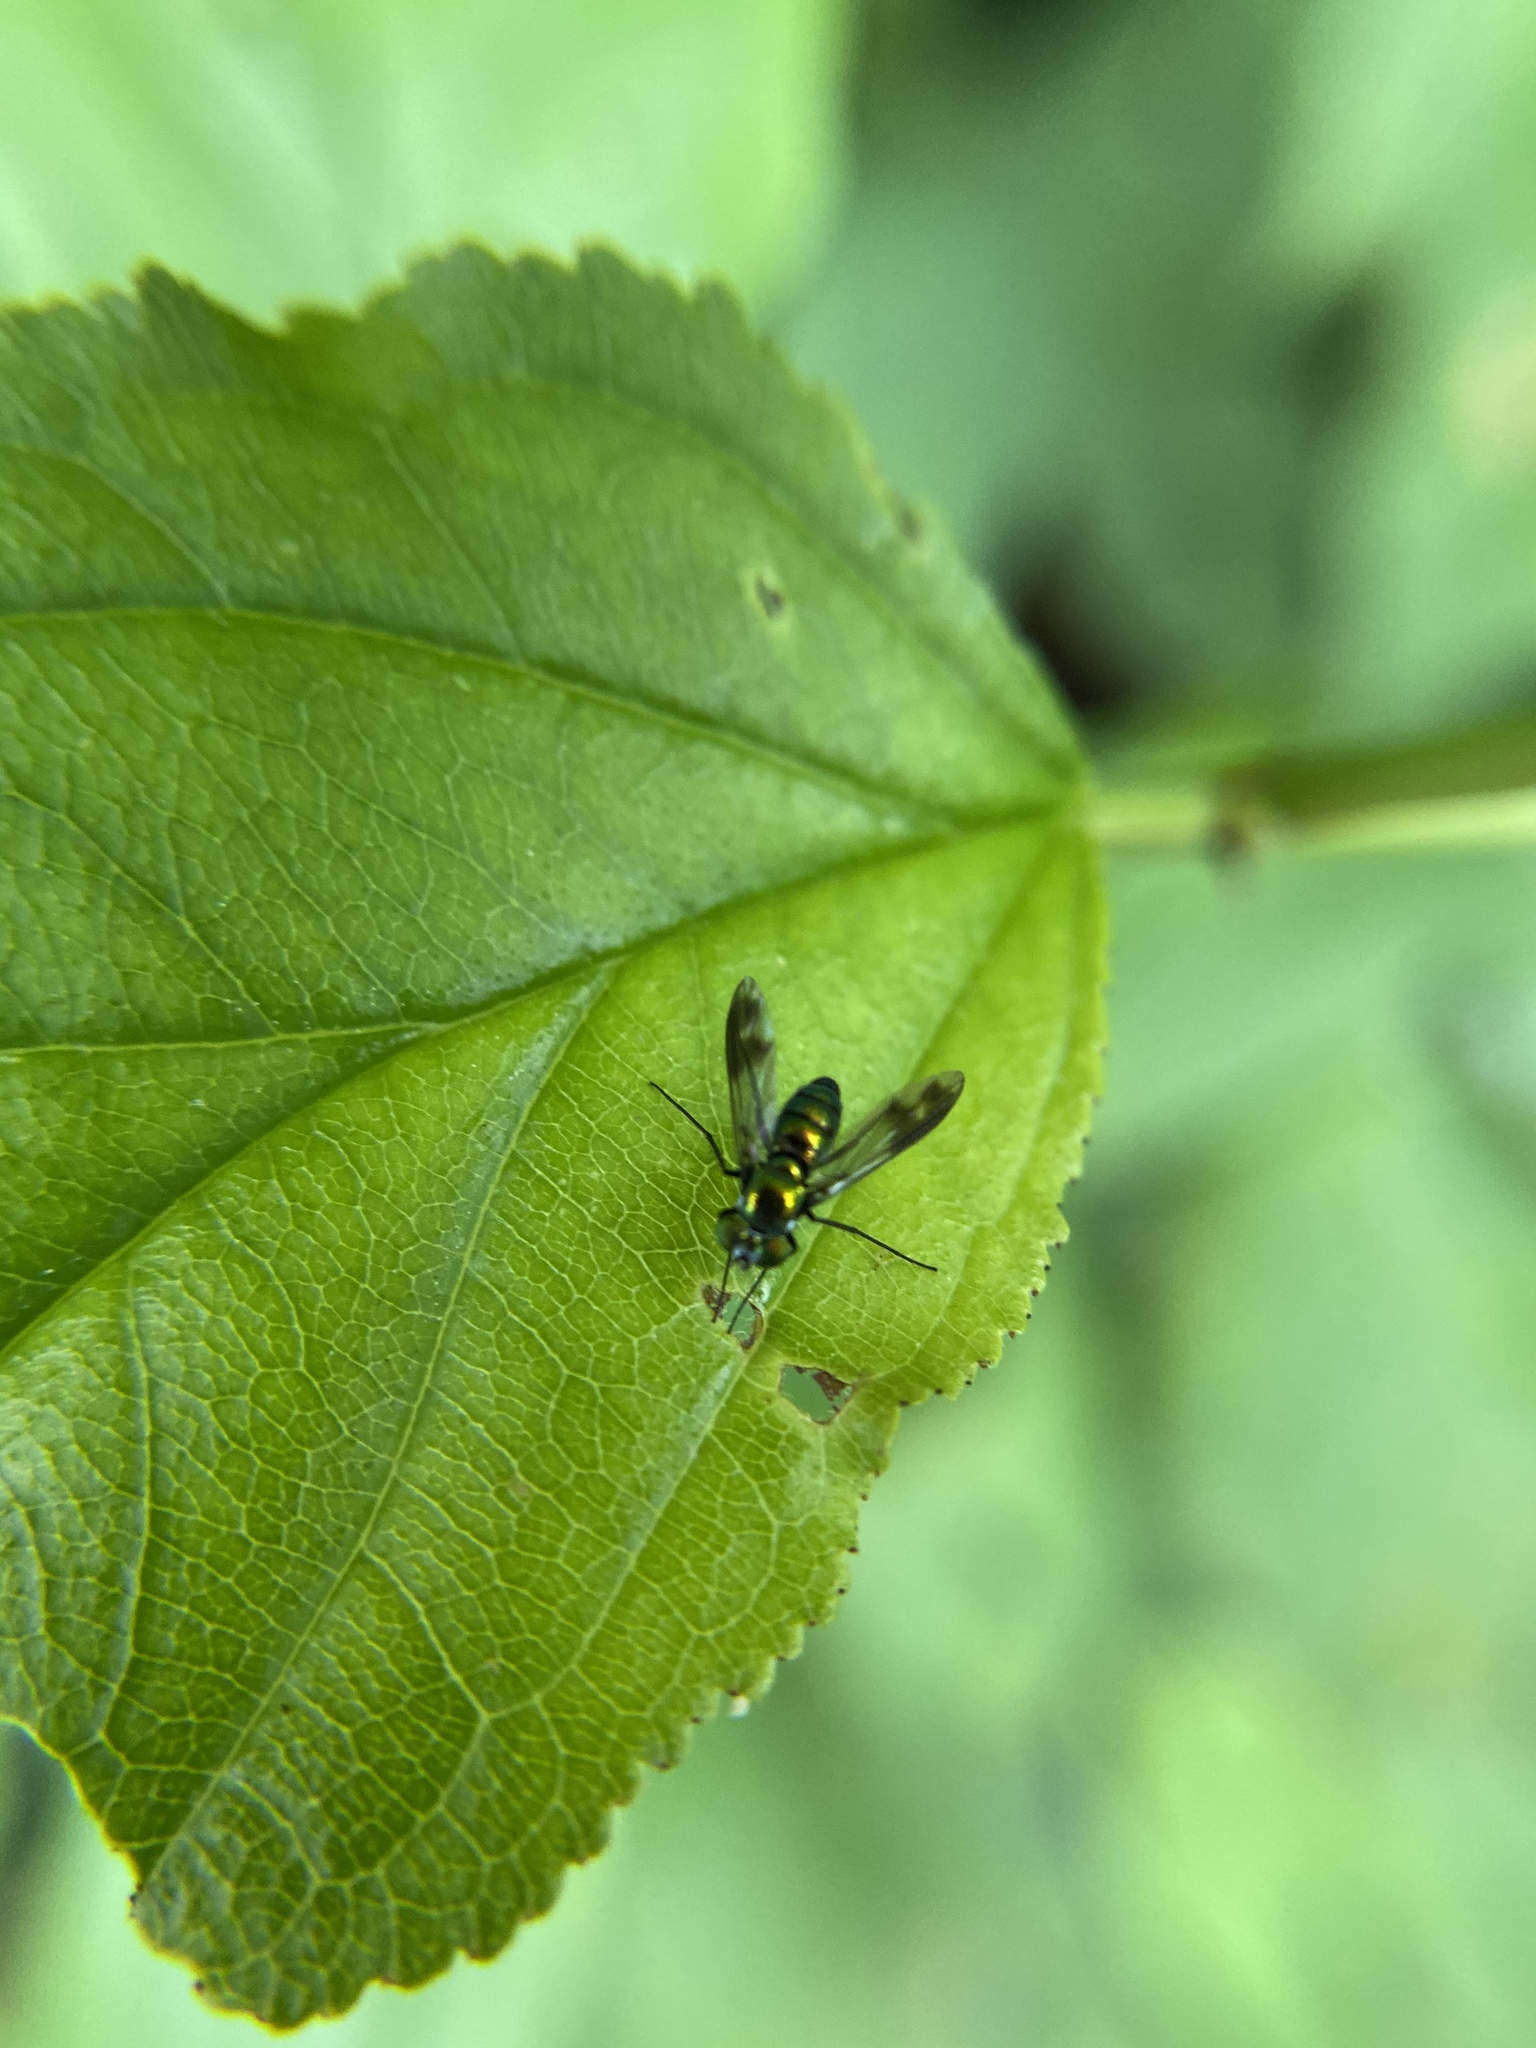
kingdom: Animalia
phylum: Arthropoda
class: Insecta
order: Diptera
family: Dolichopodidae
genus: Condylostylus
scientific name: Condylostylus patibulatus
